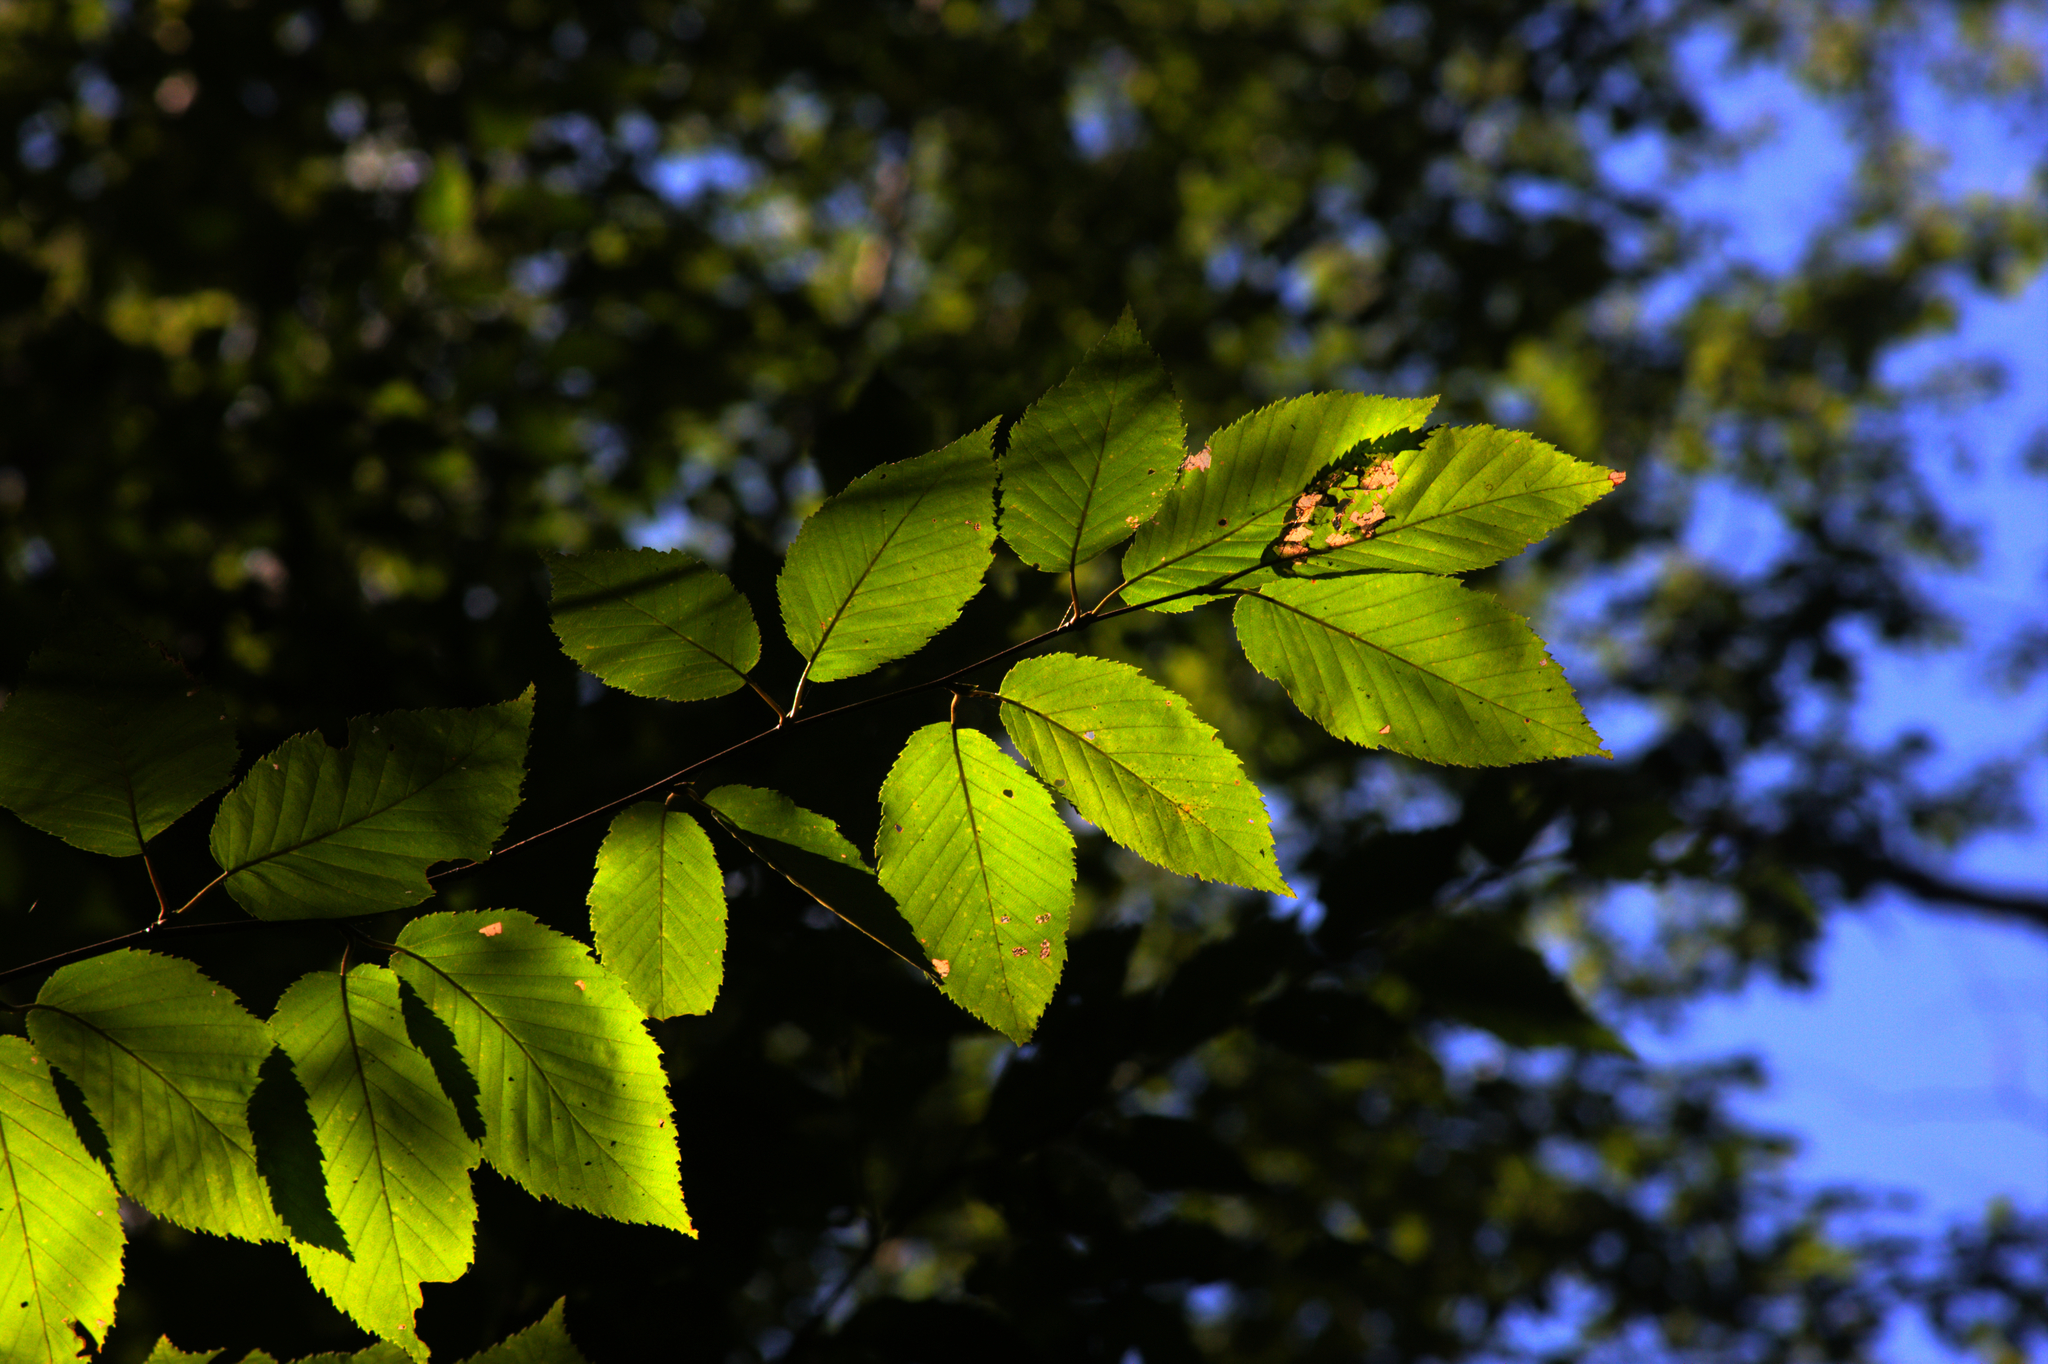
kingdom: Plantae
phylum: Tracheophyta
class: Magnoliopsida
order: Fagales
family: Betulaceae
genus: Betula
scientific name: Betula alleghaniensis
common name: Yellow birch
